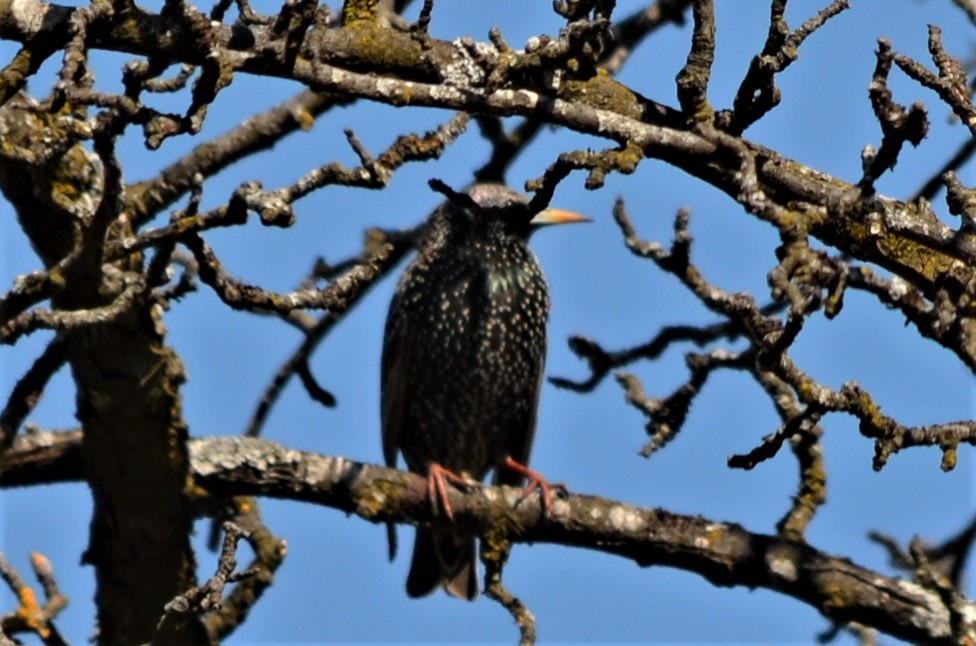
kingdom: Animalia
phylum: Chordata
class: Aves
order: Passeriformes
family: Sturnidae
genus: Sturnus
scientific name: Sturnus vulgaris
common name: Common starling
